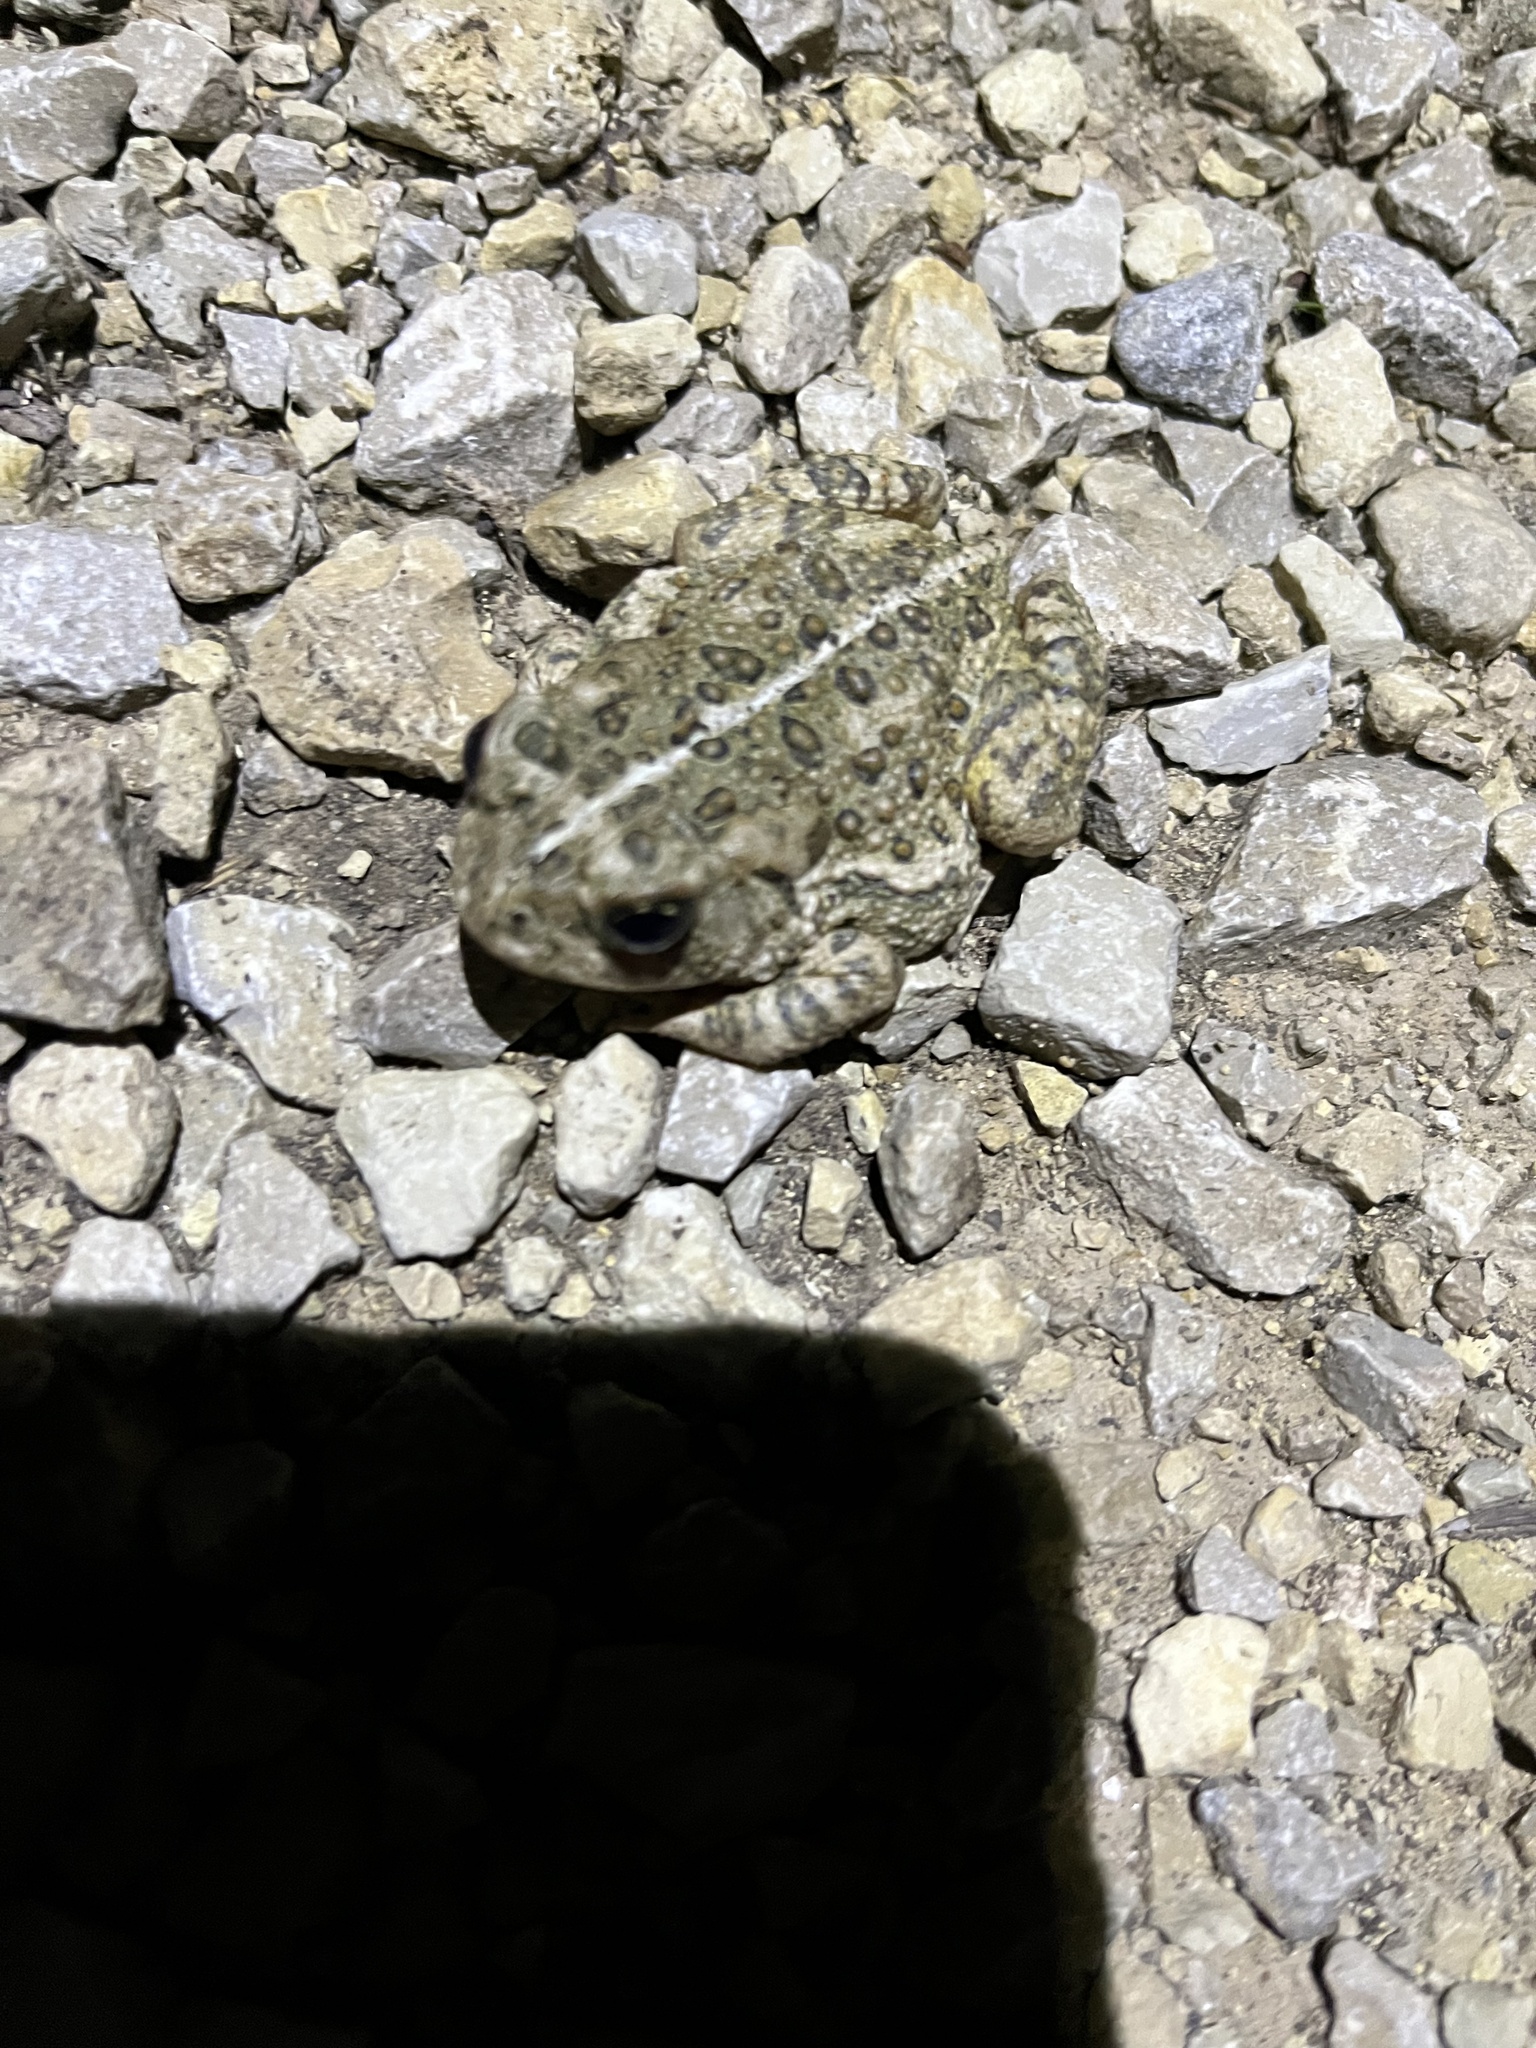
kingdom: Animalia
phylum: Chordata
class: Amphibia
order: Anura
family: Bufonidae
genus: Anaxyrus
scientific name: Anaxyrus woodhousii
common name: Woodhouse's toad
